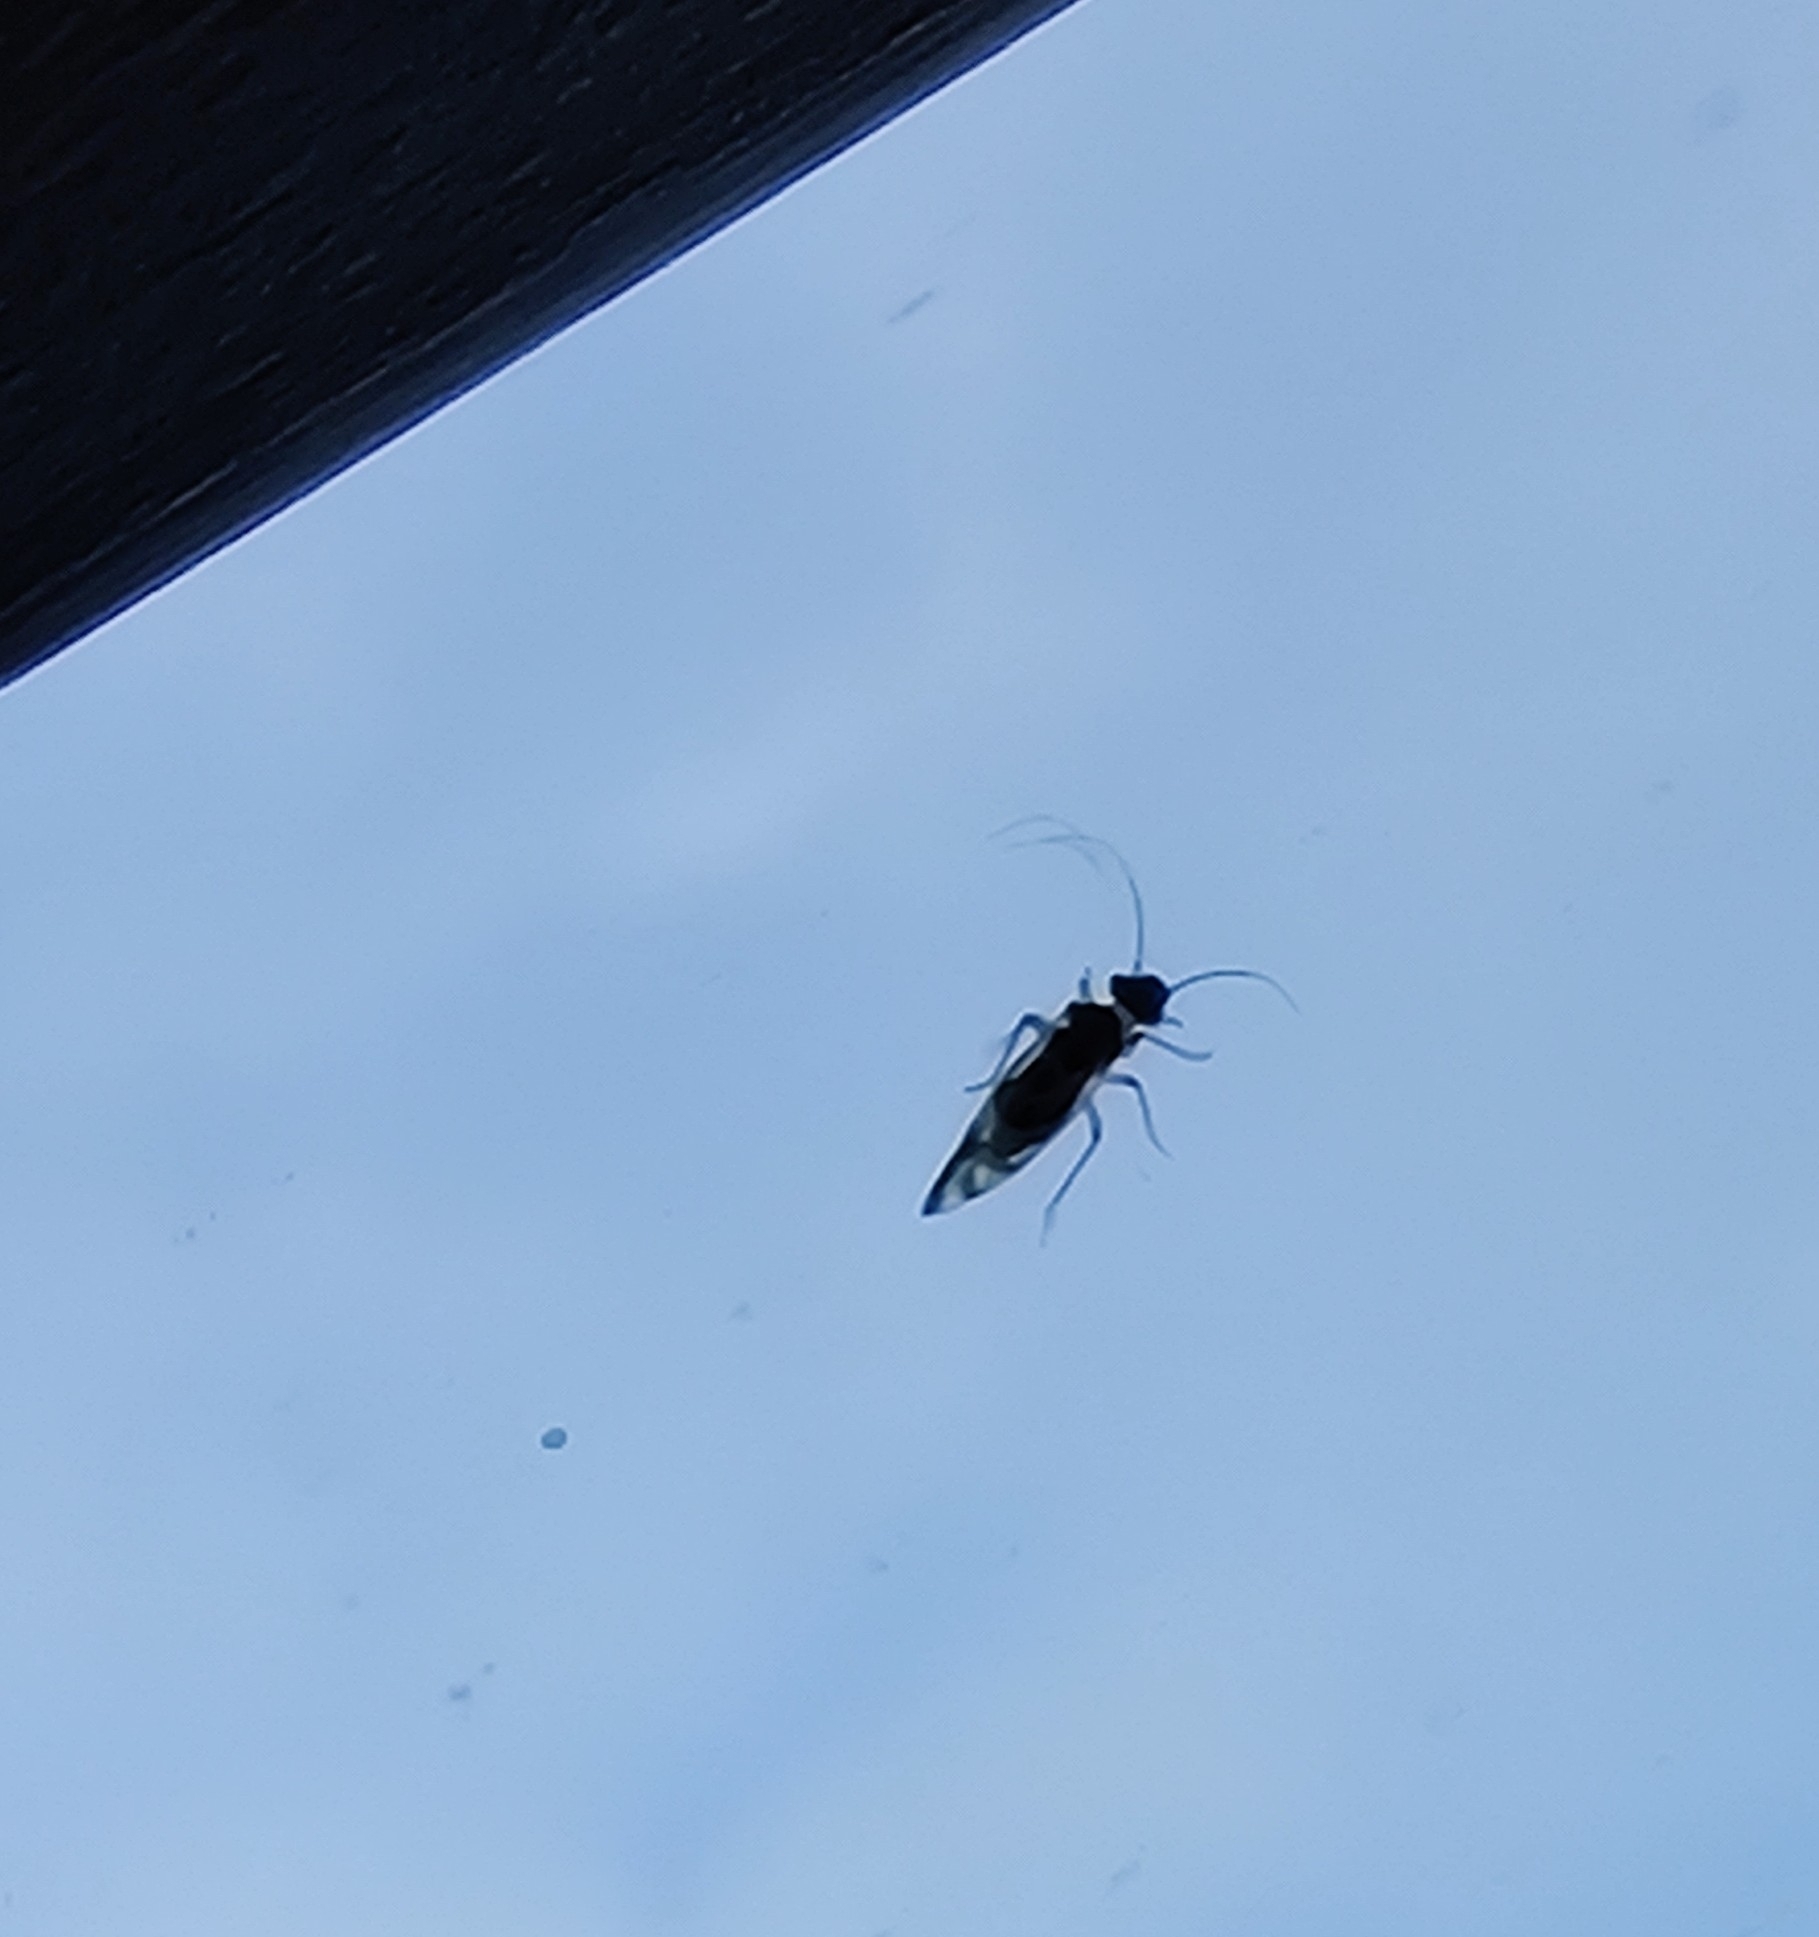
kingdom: Animalia
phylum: Arthropoda
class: Insecta
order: Psocodea
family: Stenopsocidae
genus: Graphopsocus
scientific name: Graphopsocus cruciatus
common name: Lizard bark louse
